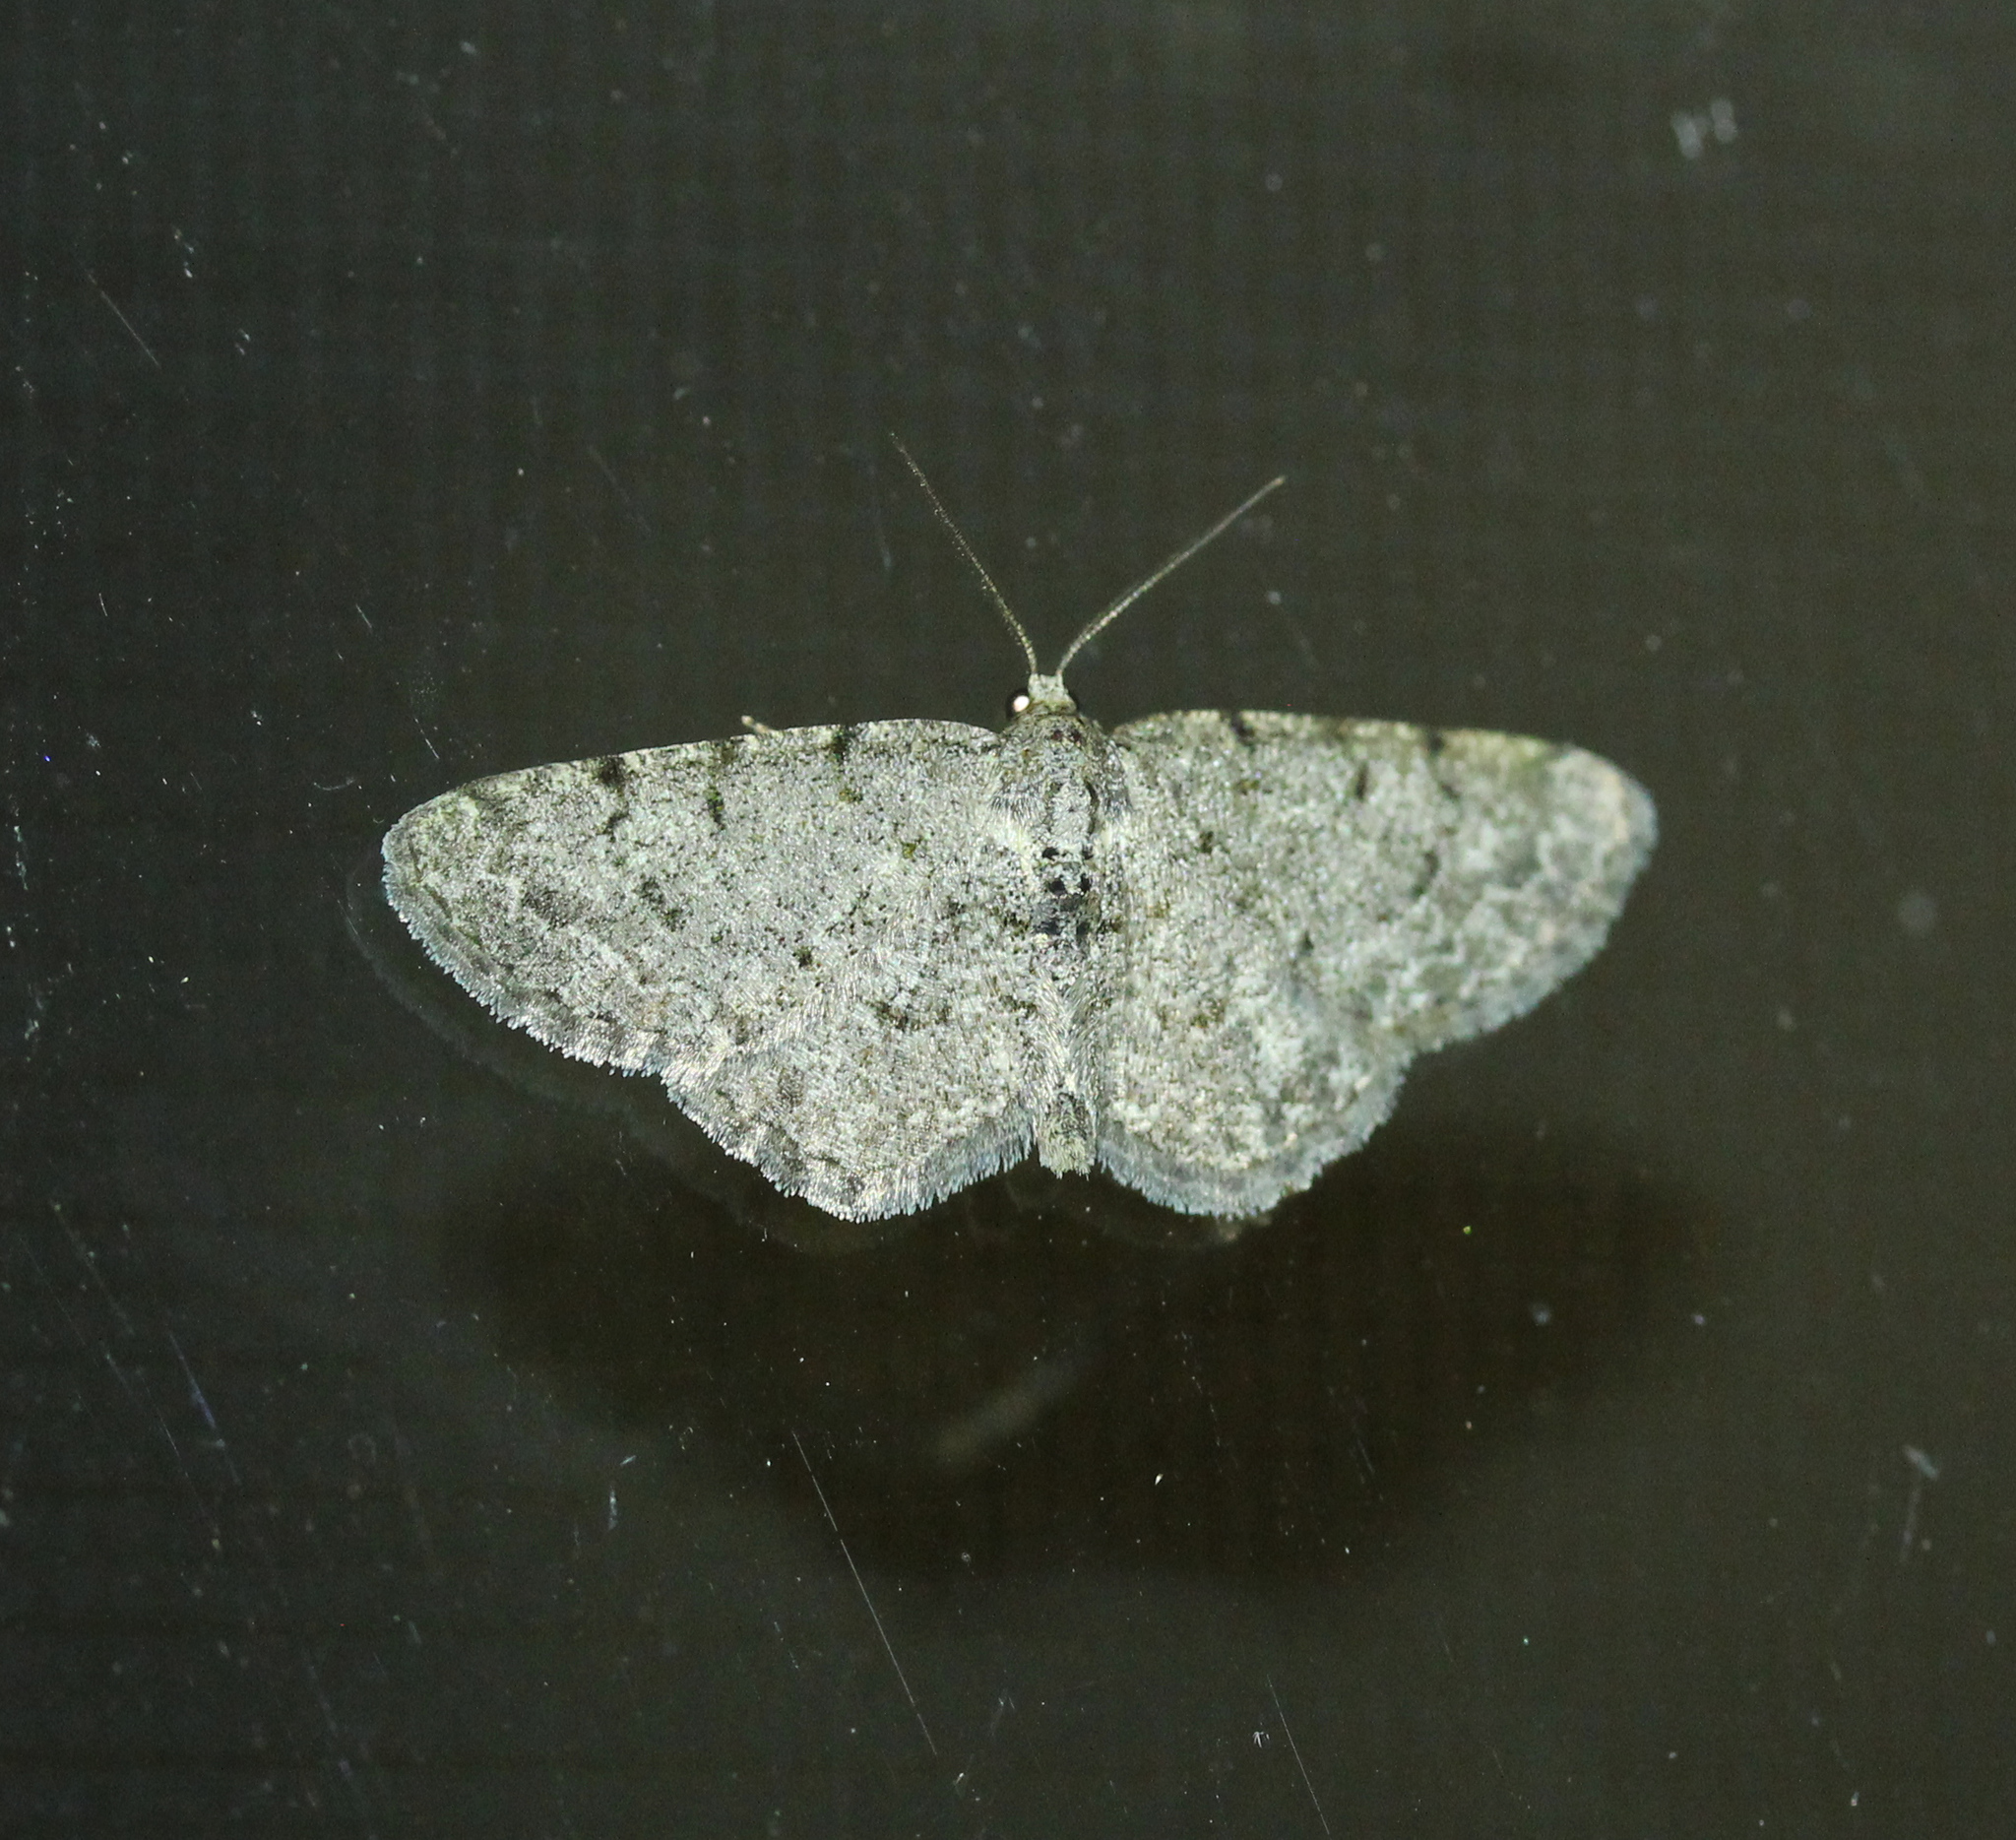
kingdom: Animalia
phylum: Arthropoda
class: Insecta
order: Lepidoptera
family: Geometridae
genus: Aethalura
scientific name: Aethalura intertexta
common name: Four-barred gray
